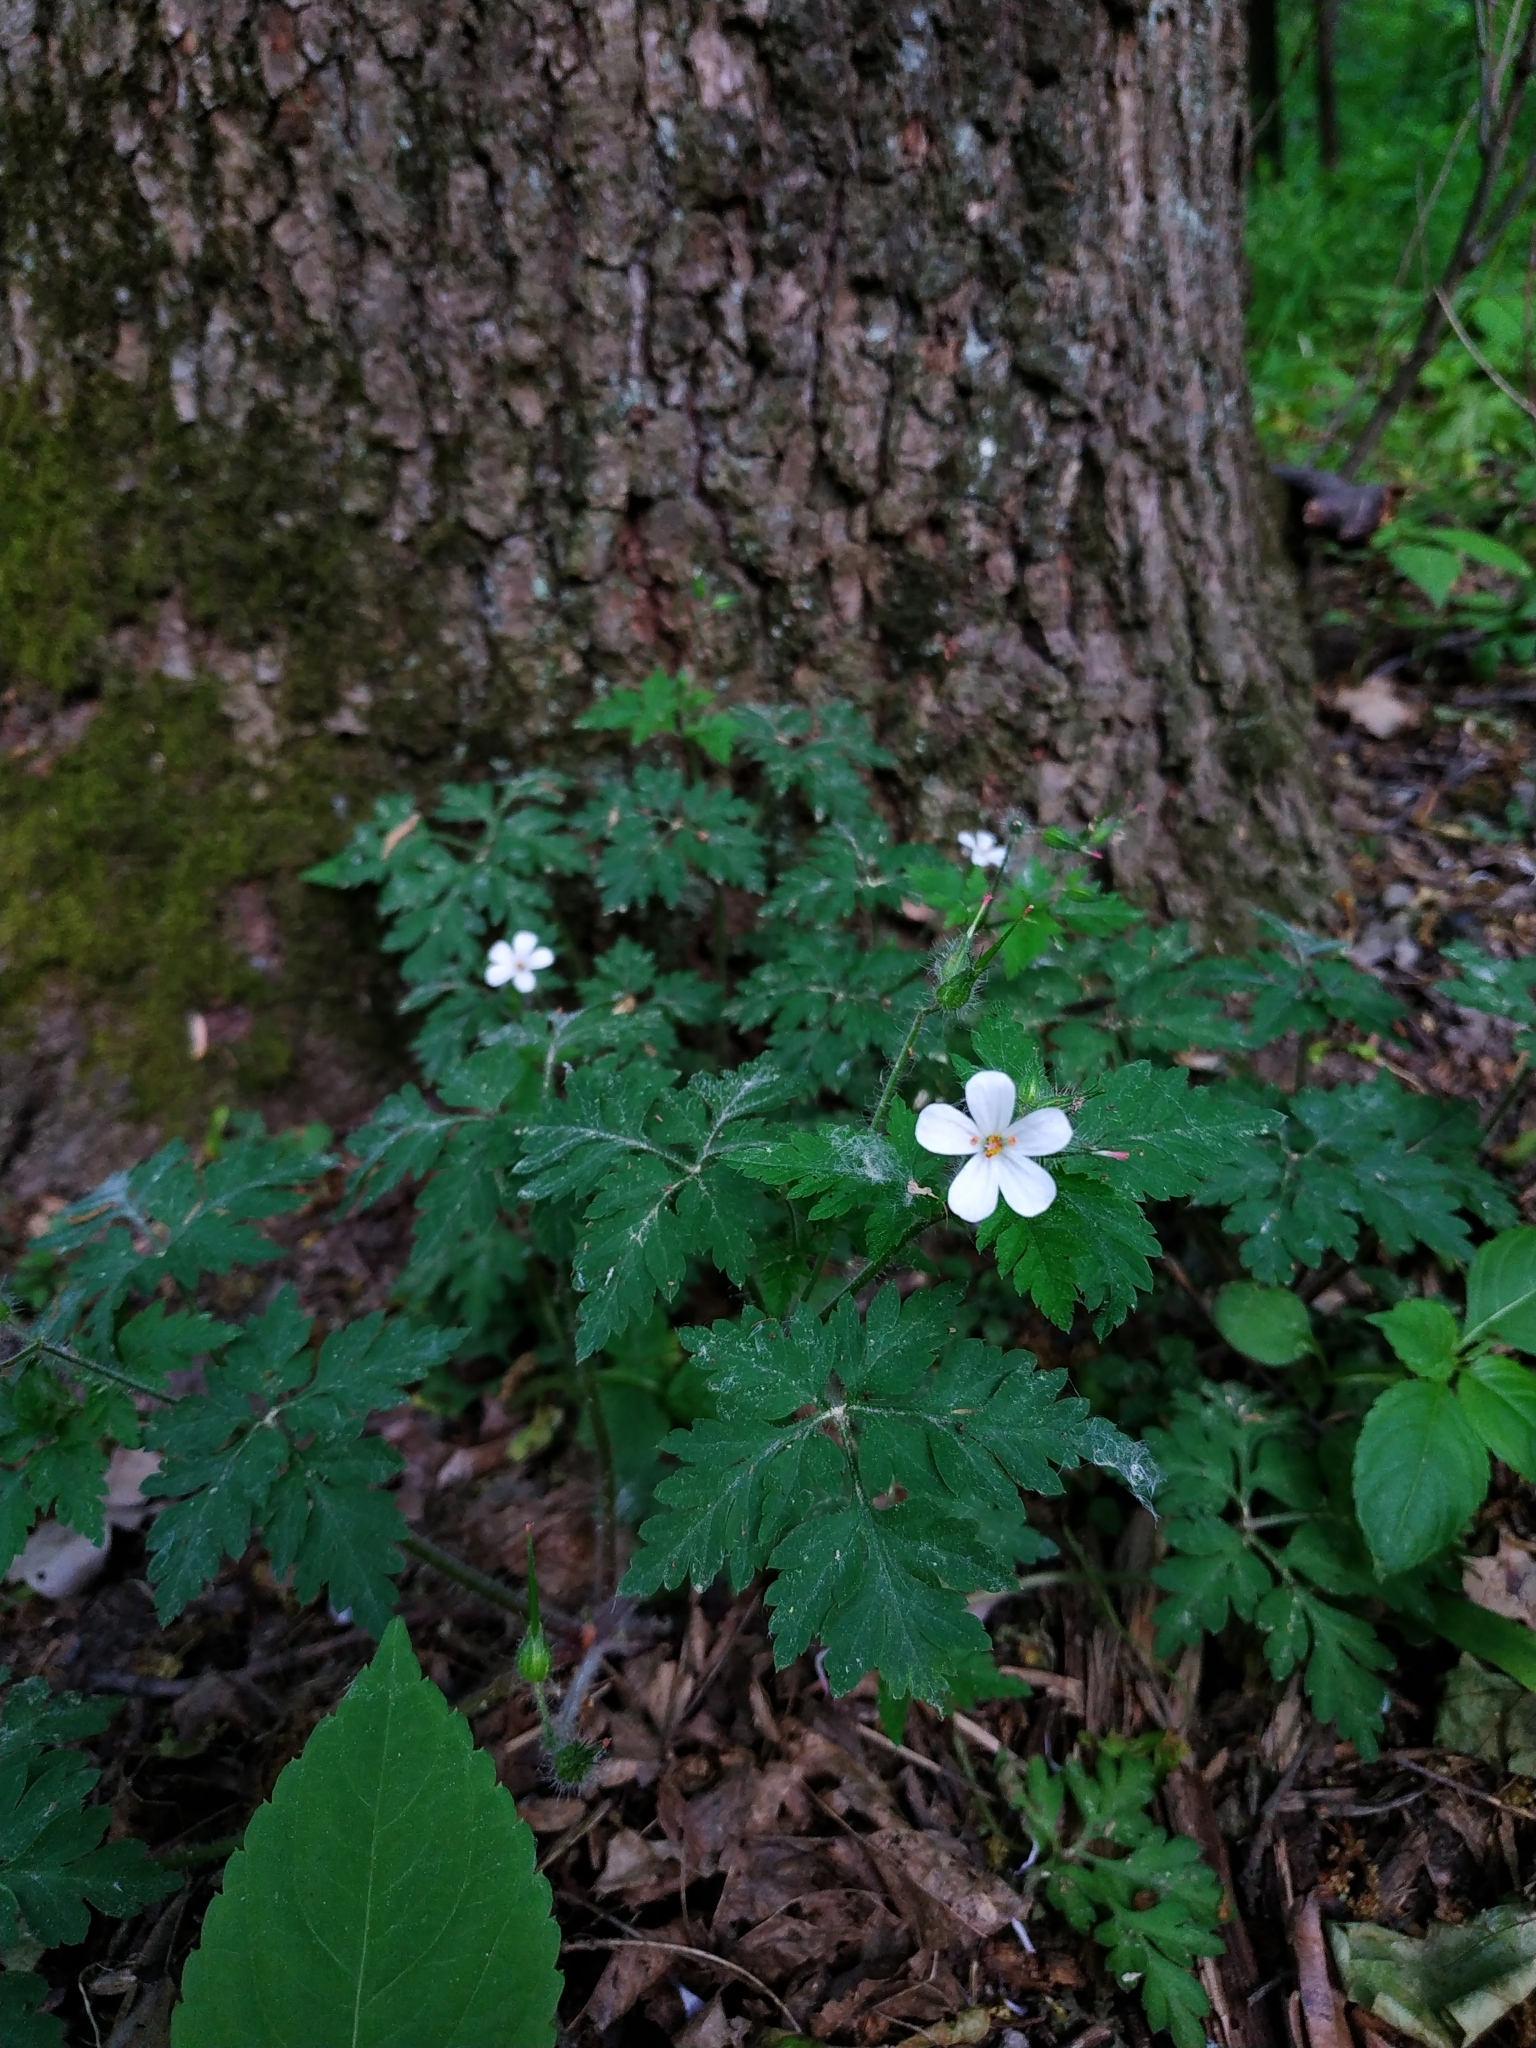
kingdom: Plantae
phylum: Tracheophyta
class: Magnoliopsida
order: Geraniales
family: Geraniaceae
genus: Geranium
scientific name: Geranium robertianum
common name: Herb-robert
